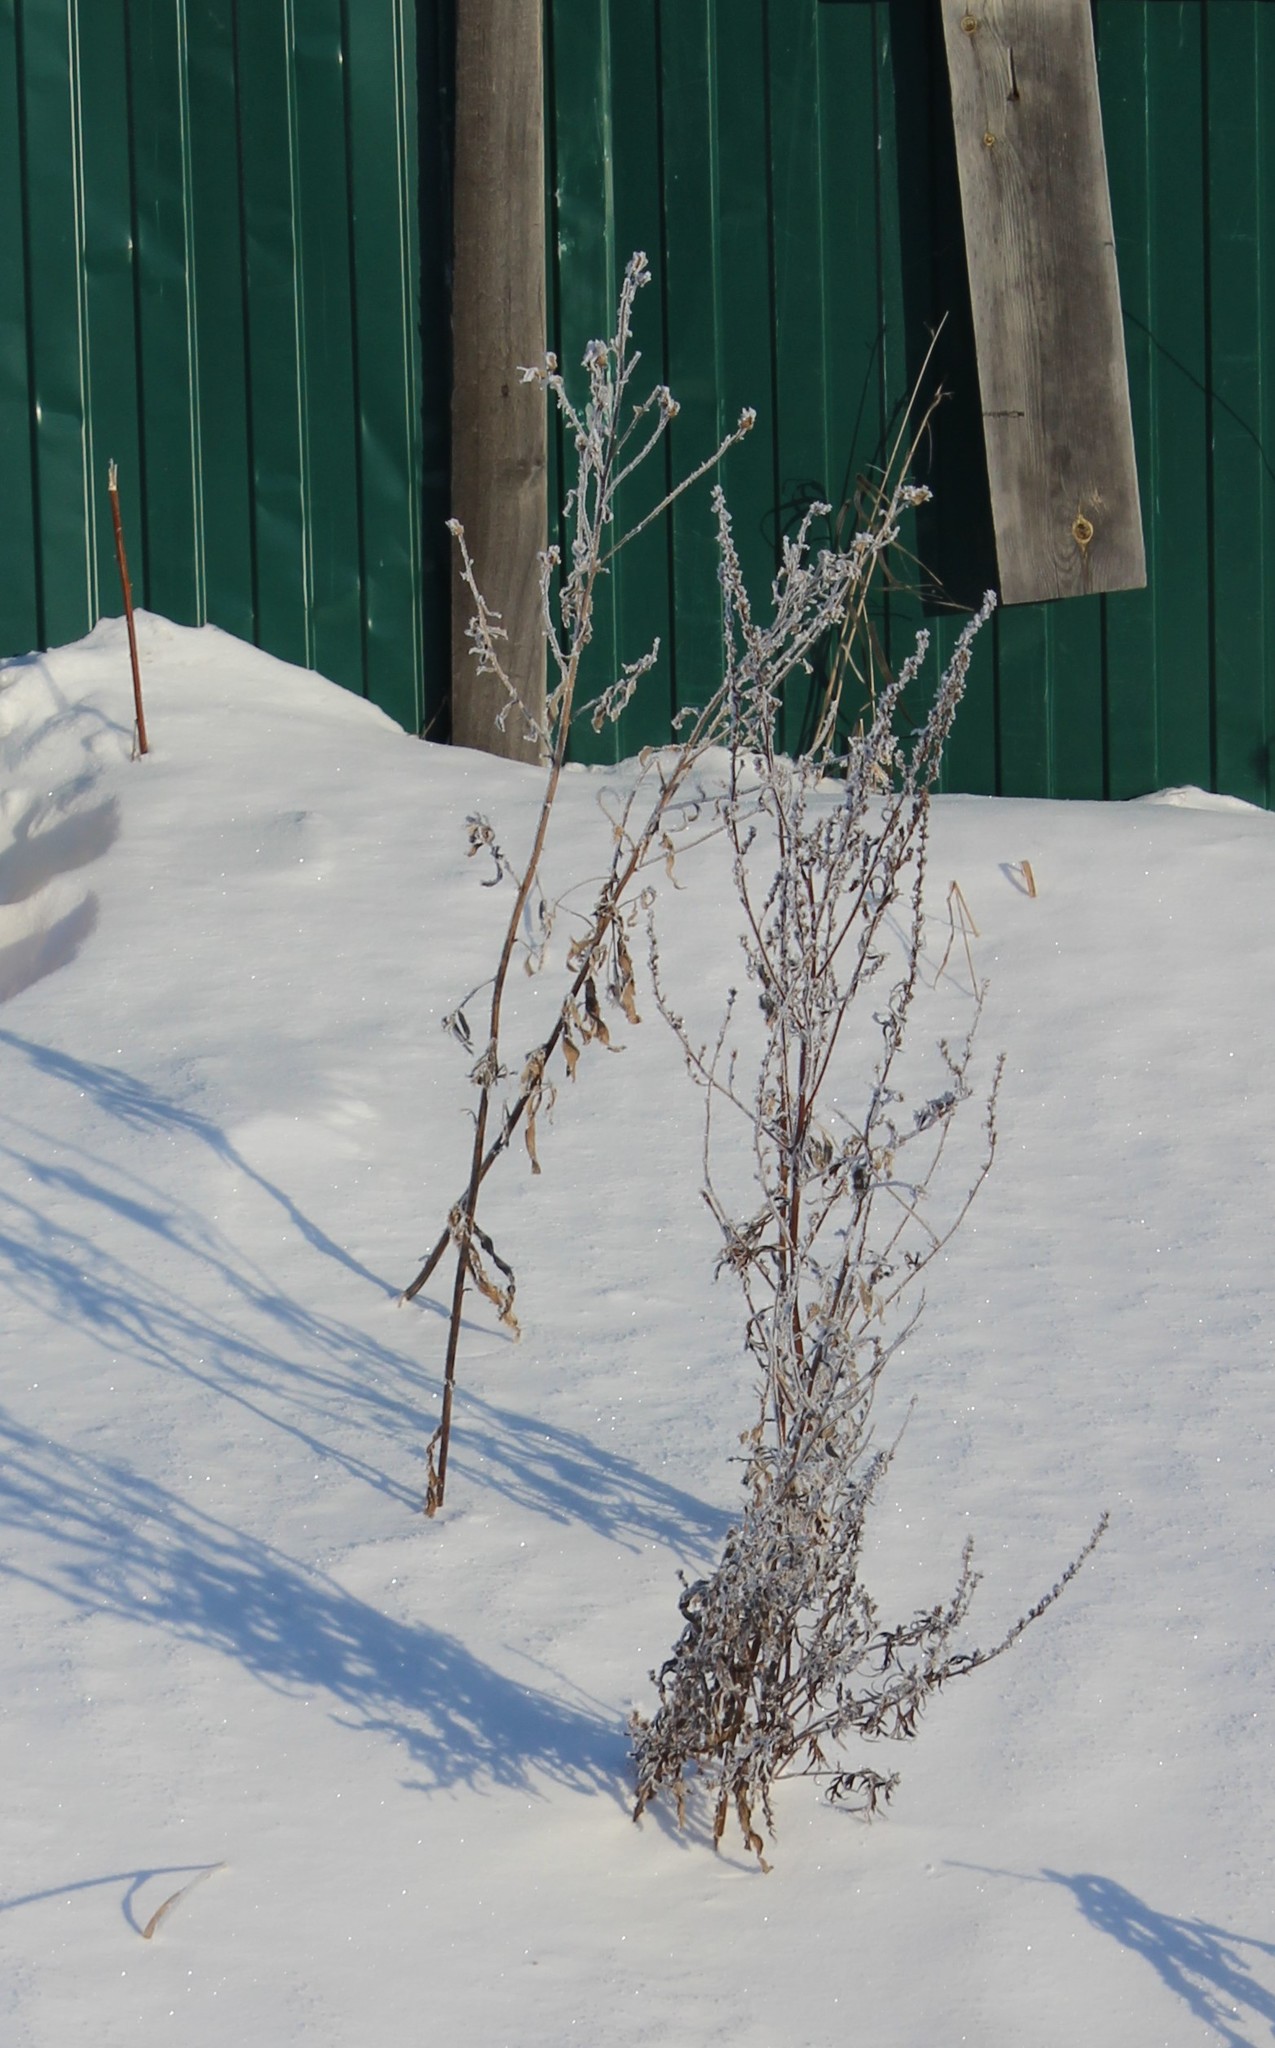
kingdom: Plantae
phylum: Tracheophyta
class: Magnoliopsida
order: Asterales
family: Asteraceae
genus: Artemisia
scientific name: Artemisia vulgaris
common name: Mugwort
